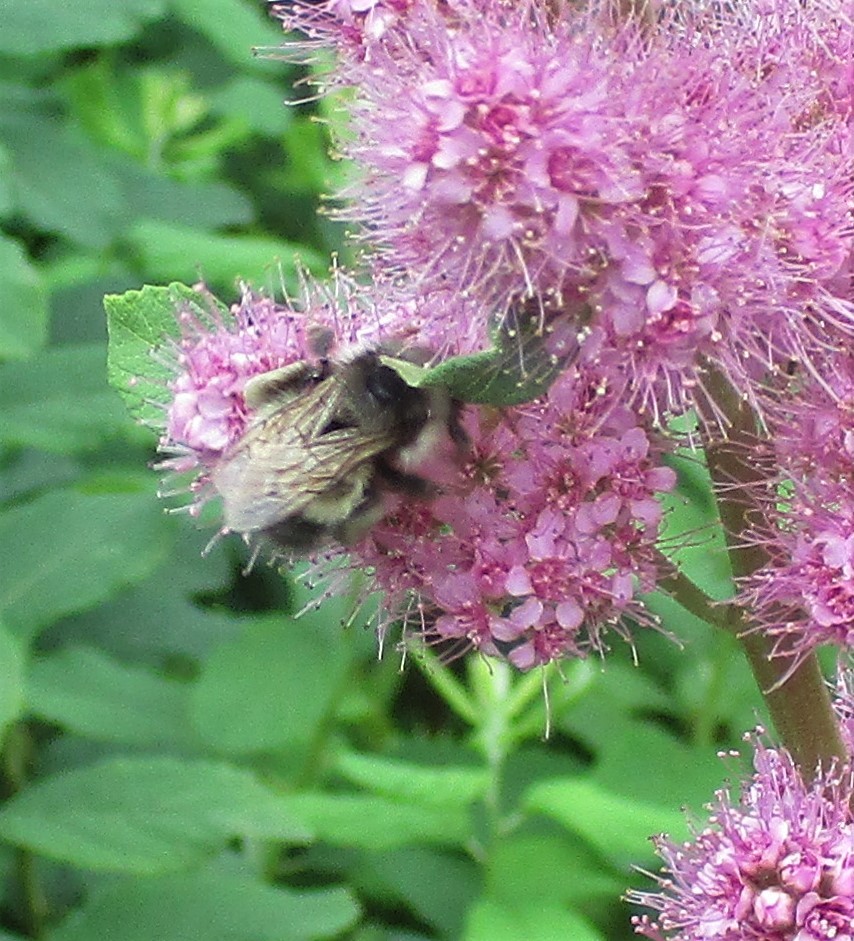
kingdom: Animalia
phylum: Arthropoda
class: Insecta
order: Hymenoptera
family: Apidae
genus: Bombus
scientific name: Bombus flavifrons
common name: Yellow head bumble bee
